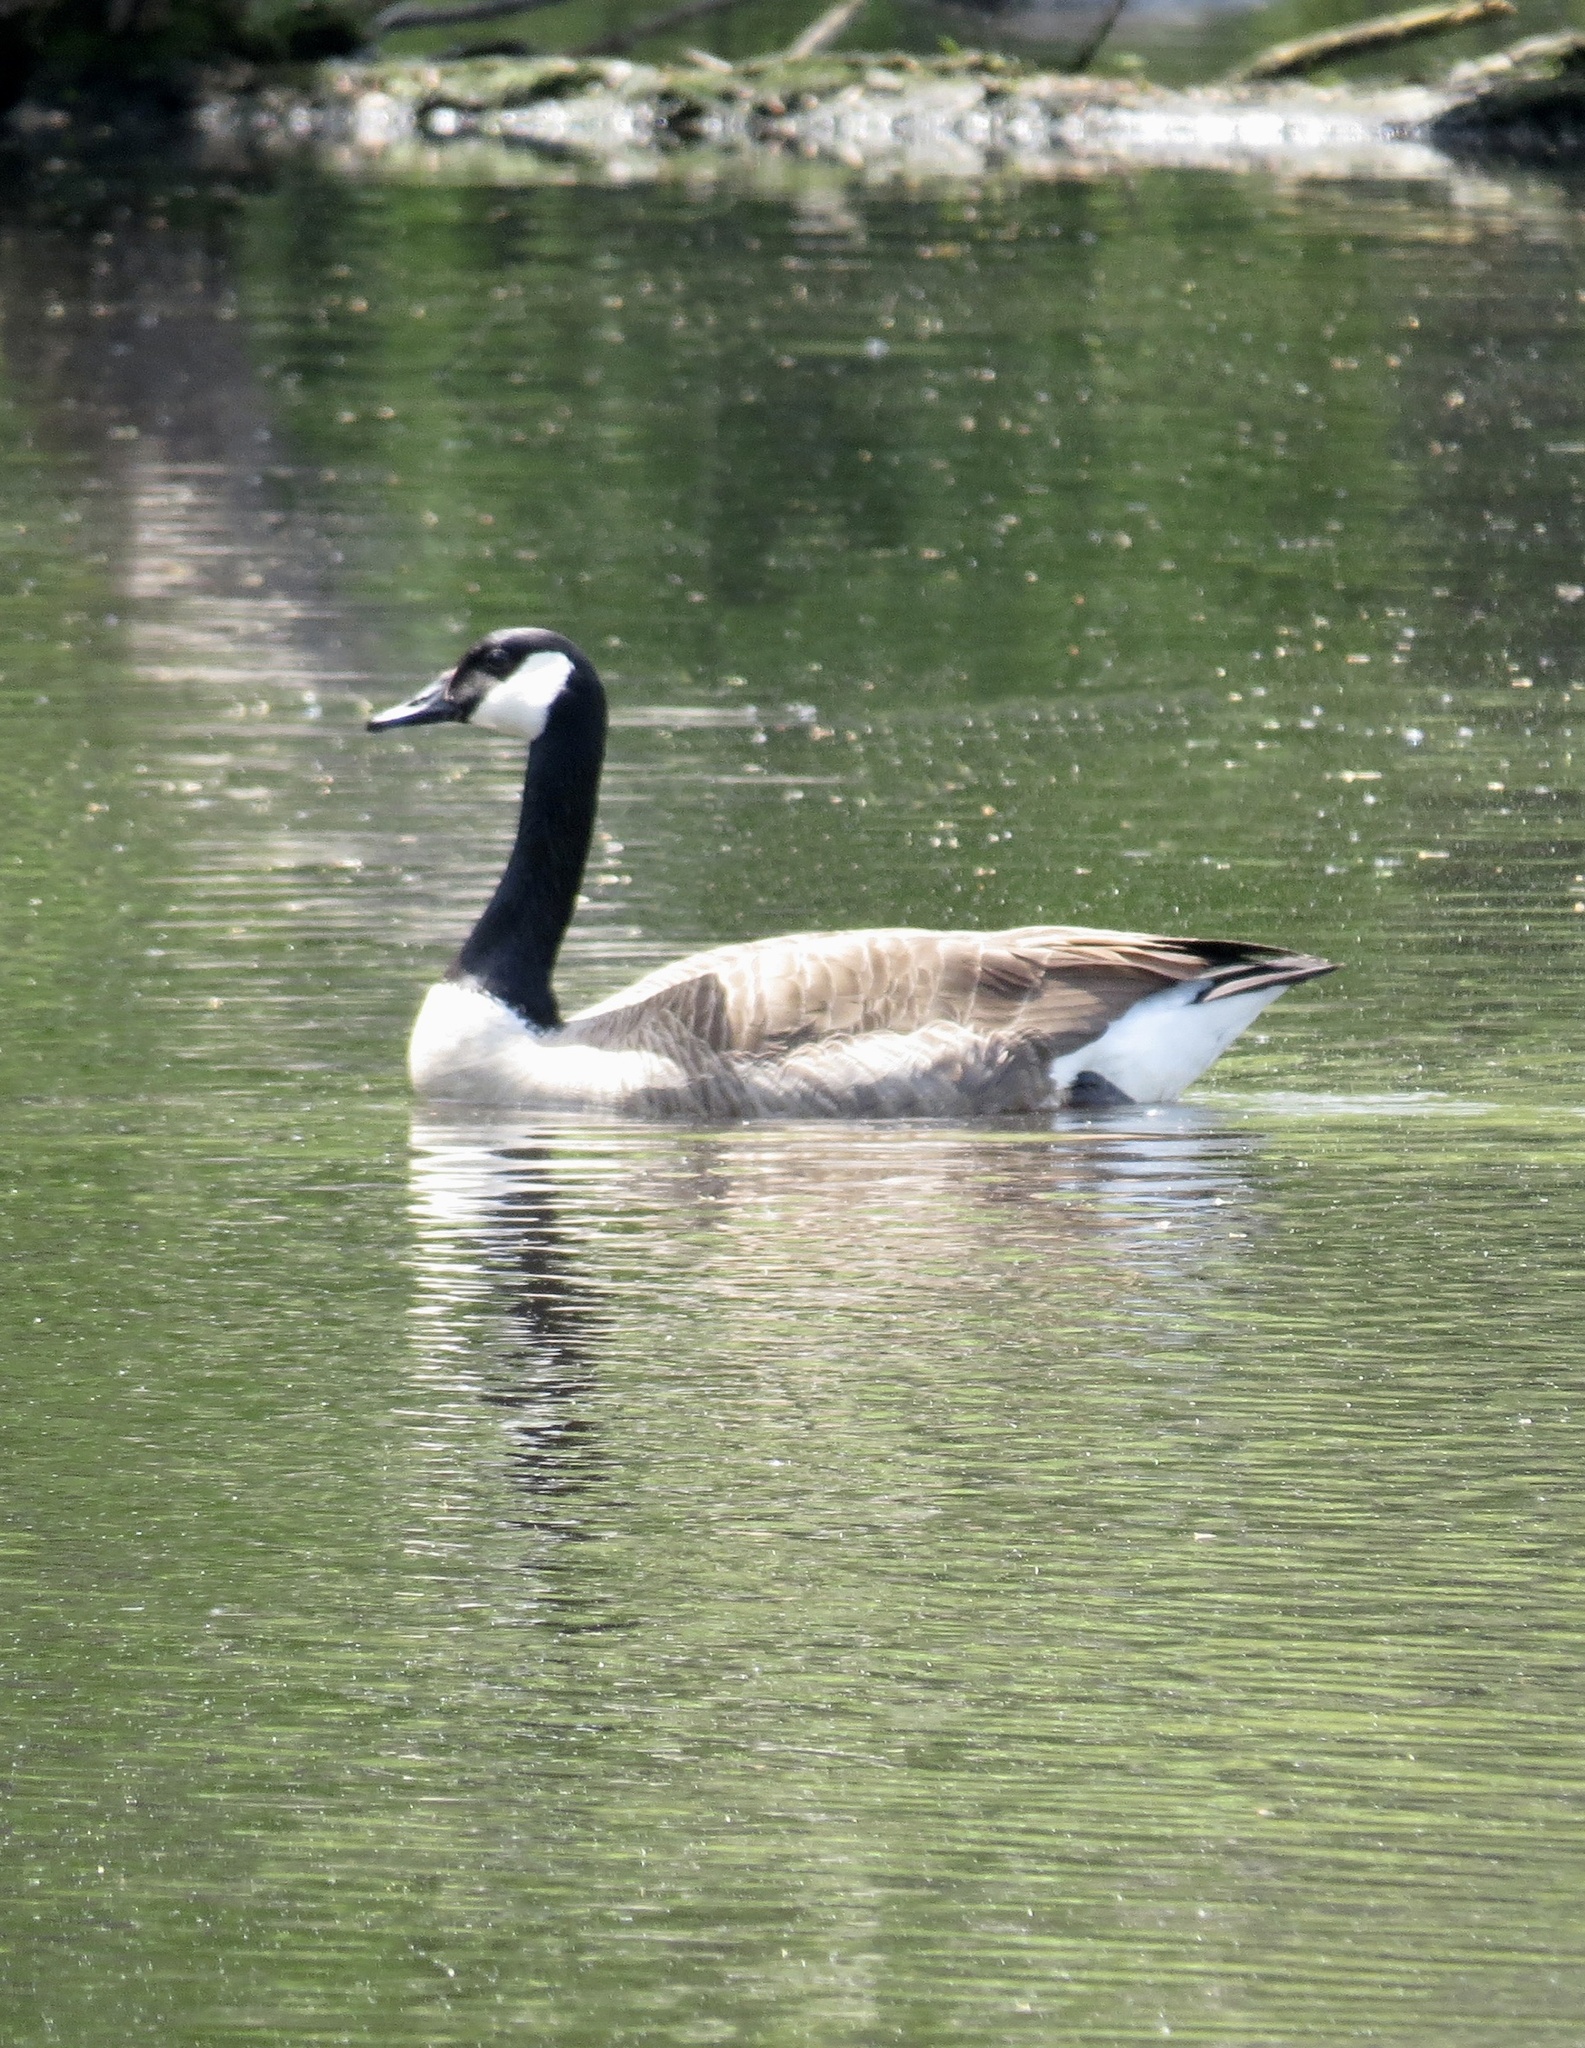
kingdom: Animalia
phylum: Chordata
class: Aves
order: Anseriformes
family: Anatidae
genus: Branta
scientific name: Branta canadensis
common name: Canada goose
